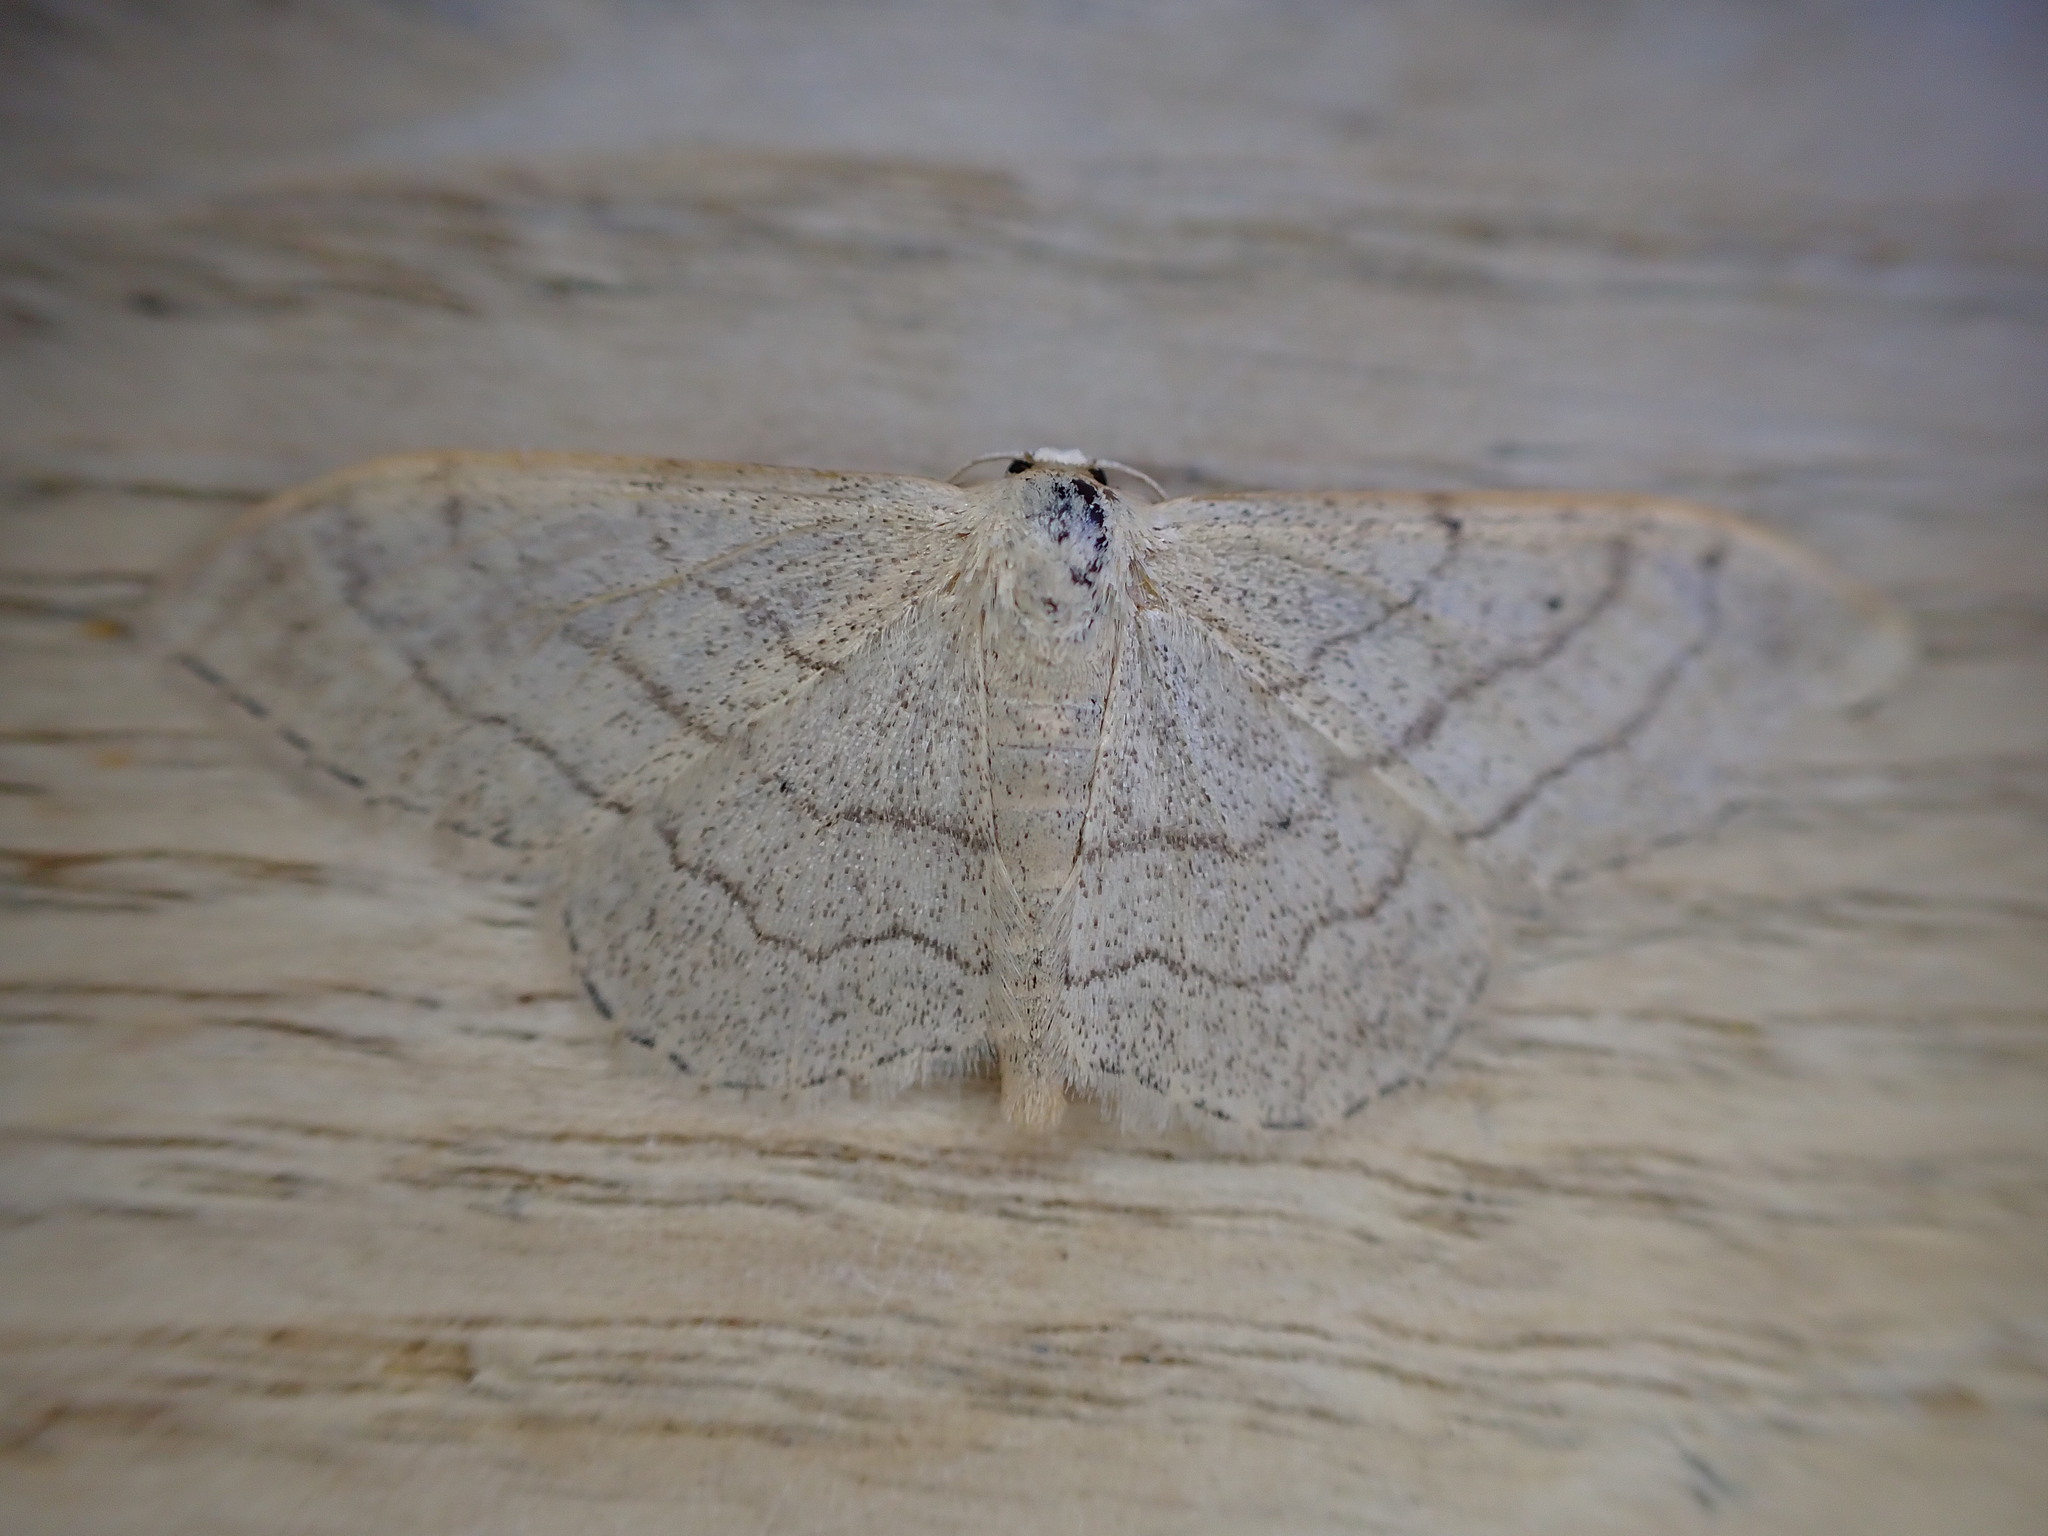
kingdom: Animalia
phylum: Arthropoda
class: Insecta
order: Lepidoptera
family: Geometridae
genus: Idaea
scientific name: Idaea aversata
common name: Riband wave
